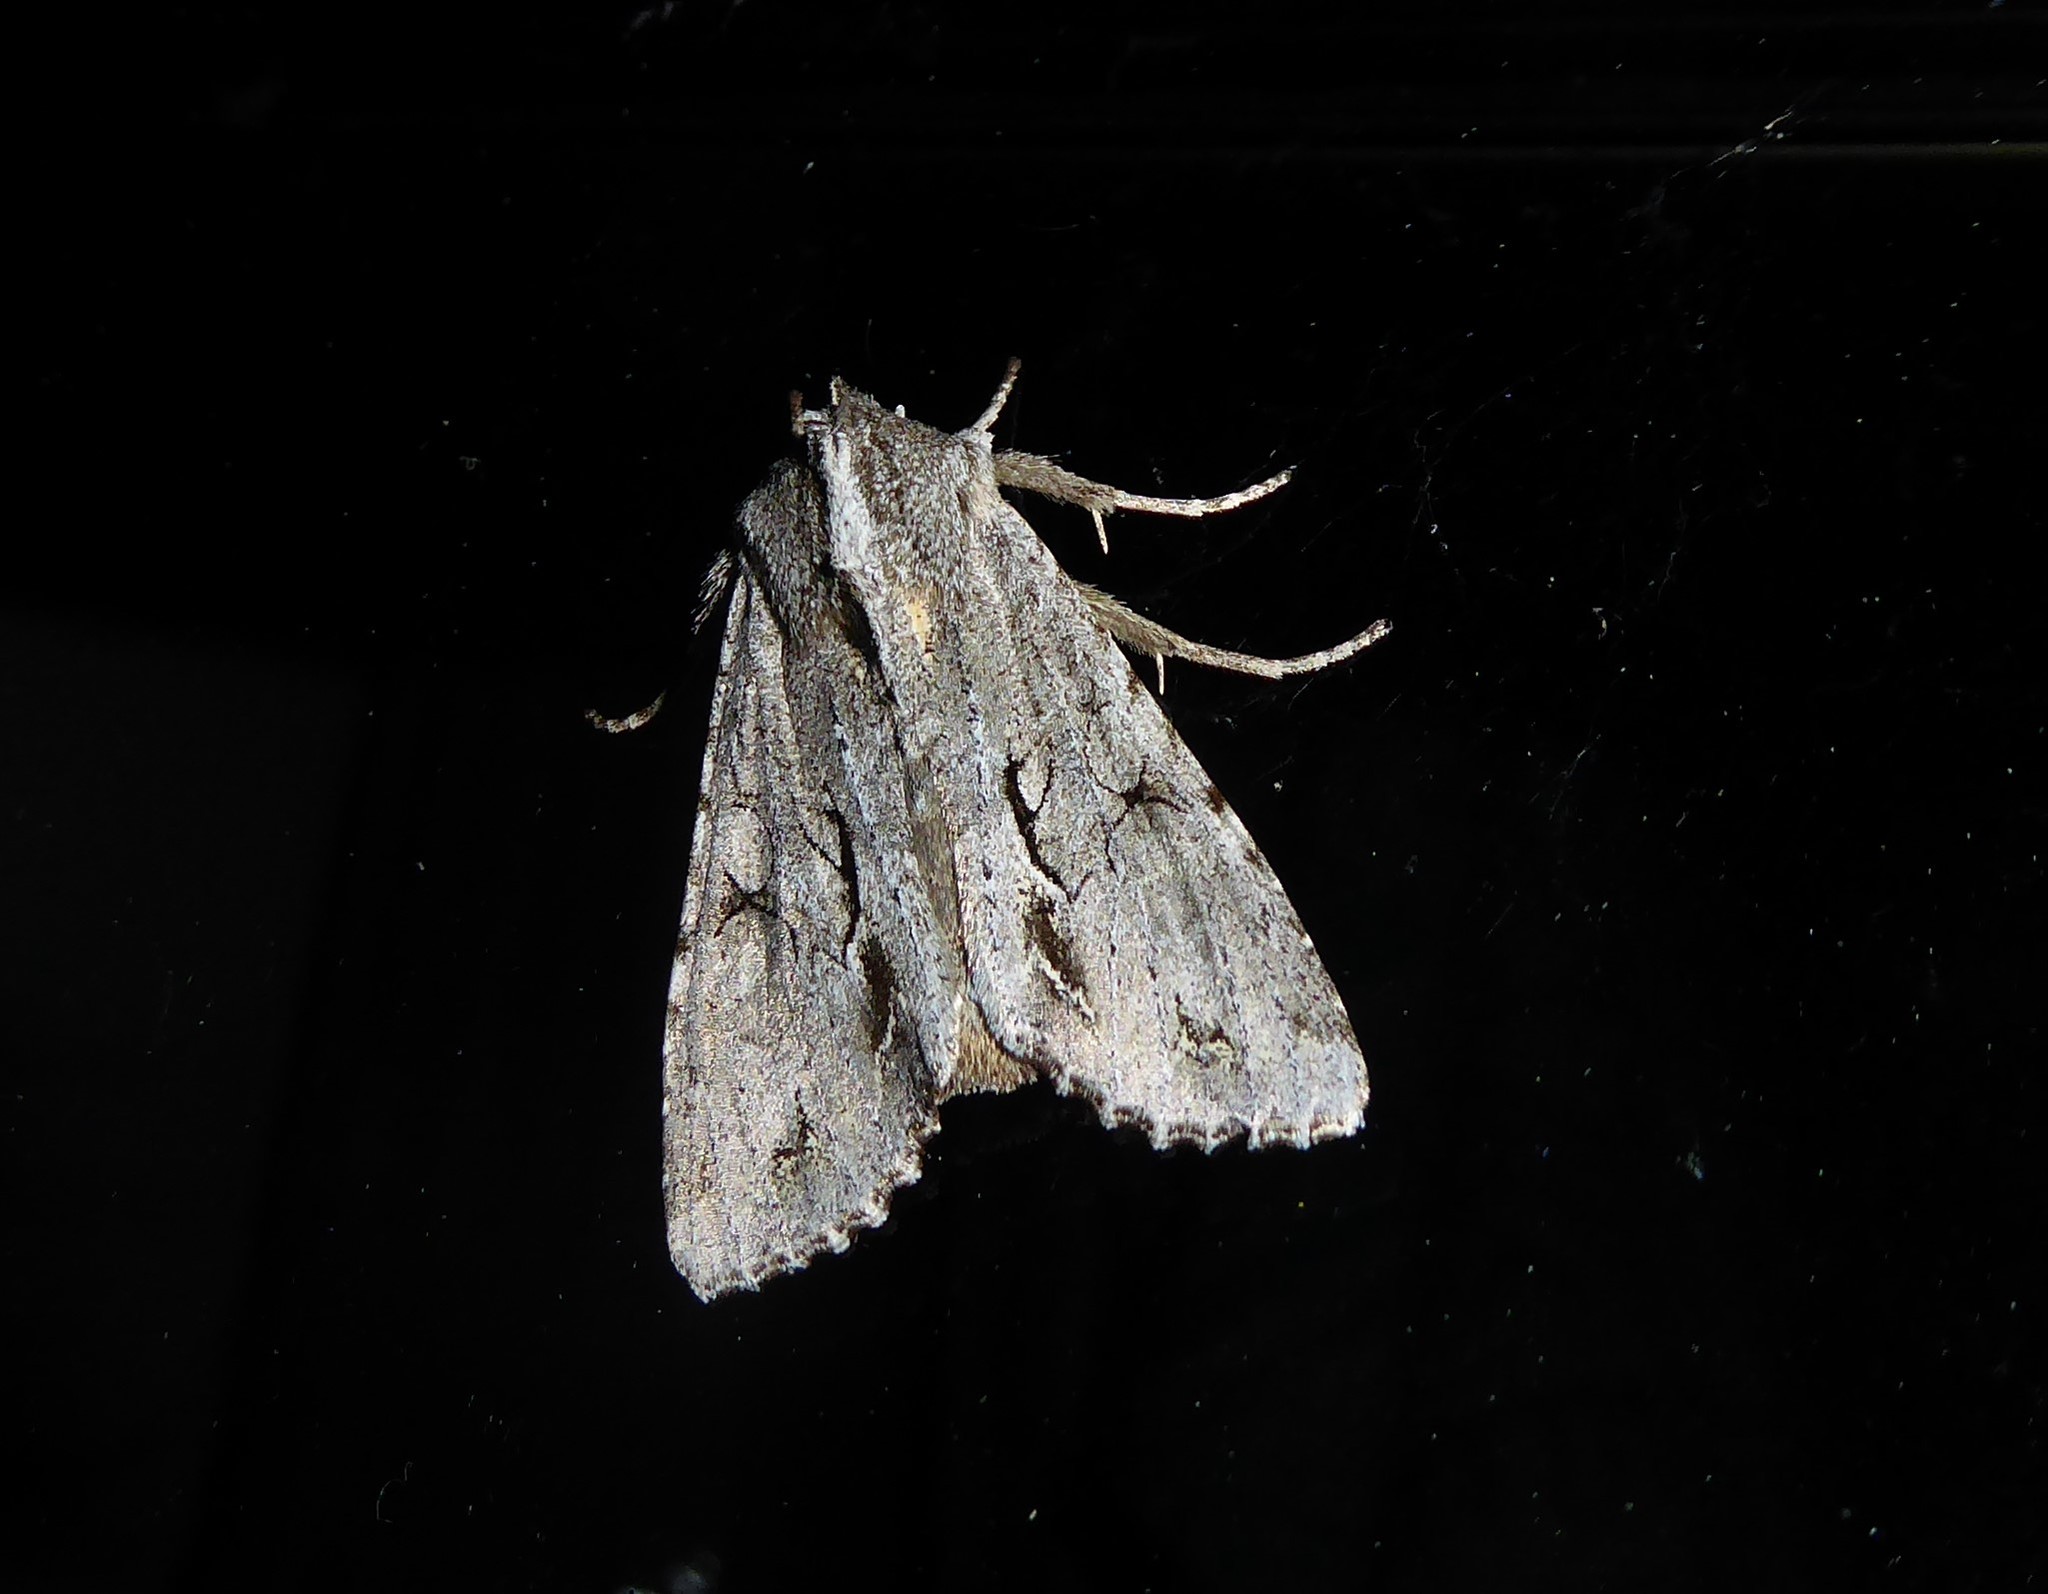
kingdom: Animalia
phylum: Arthropoda
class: Insecta
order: Lepidoptera
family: Noctuidae
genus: Ichneutica
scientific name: Ichneutica
